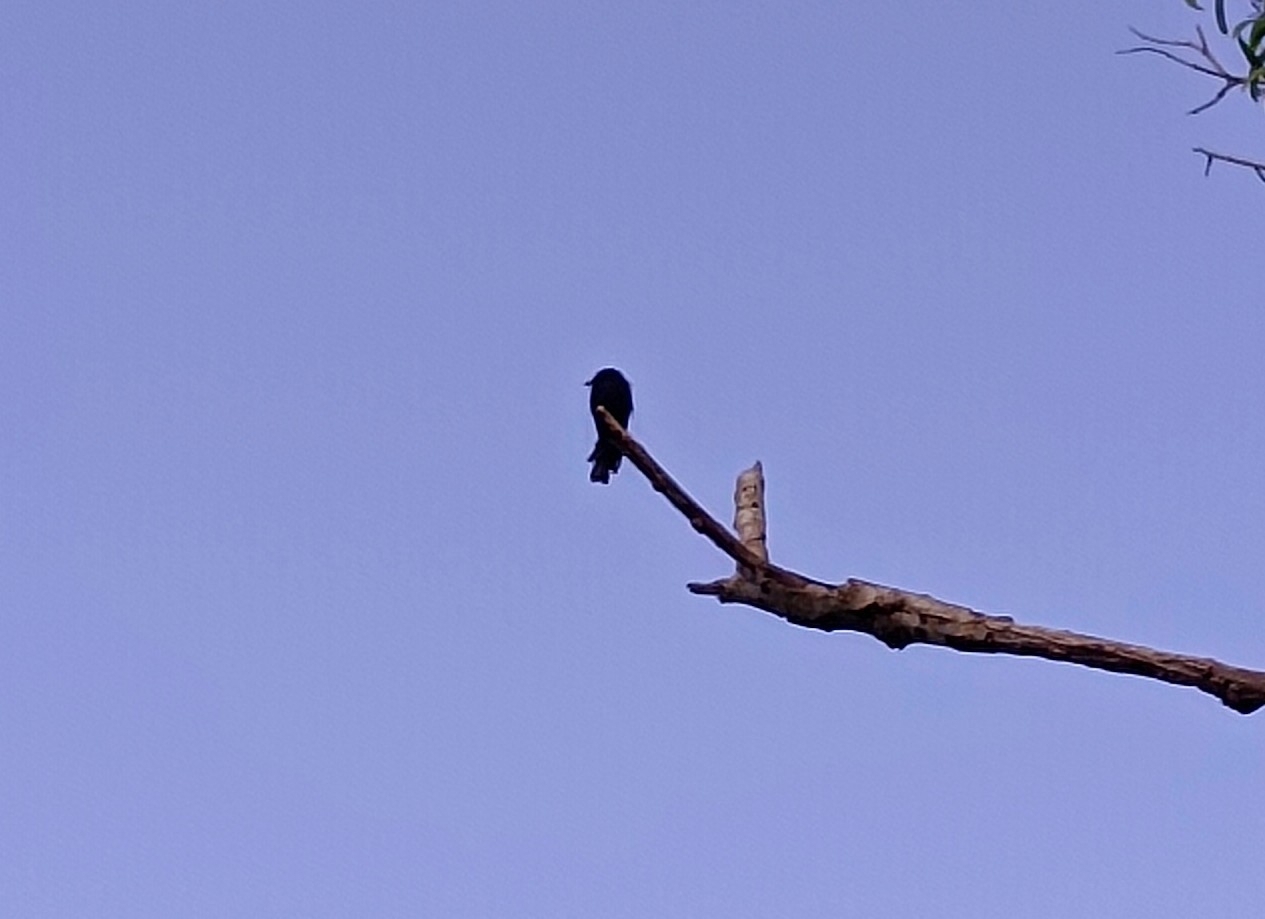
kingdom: Animalia
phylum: Chordata
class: Aves
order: Passeriformes
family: Dicruridae
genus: Dicrurus
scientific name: Dicrurus paradiseus
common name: Greater racket-tailed drongo
